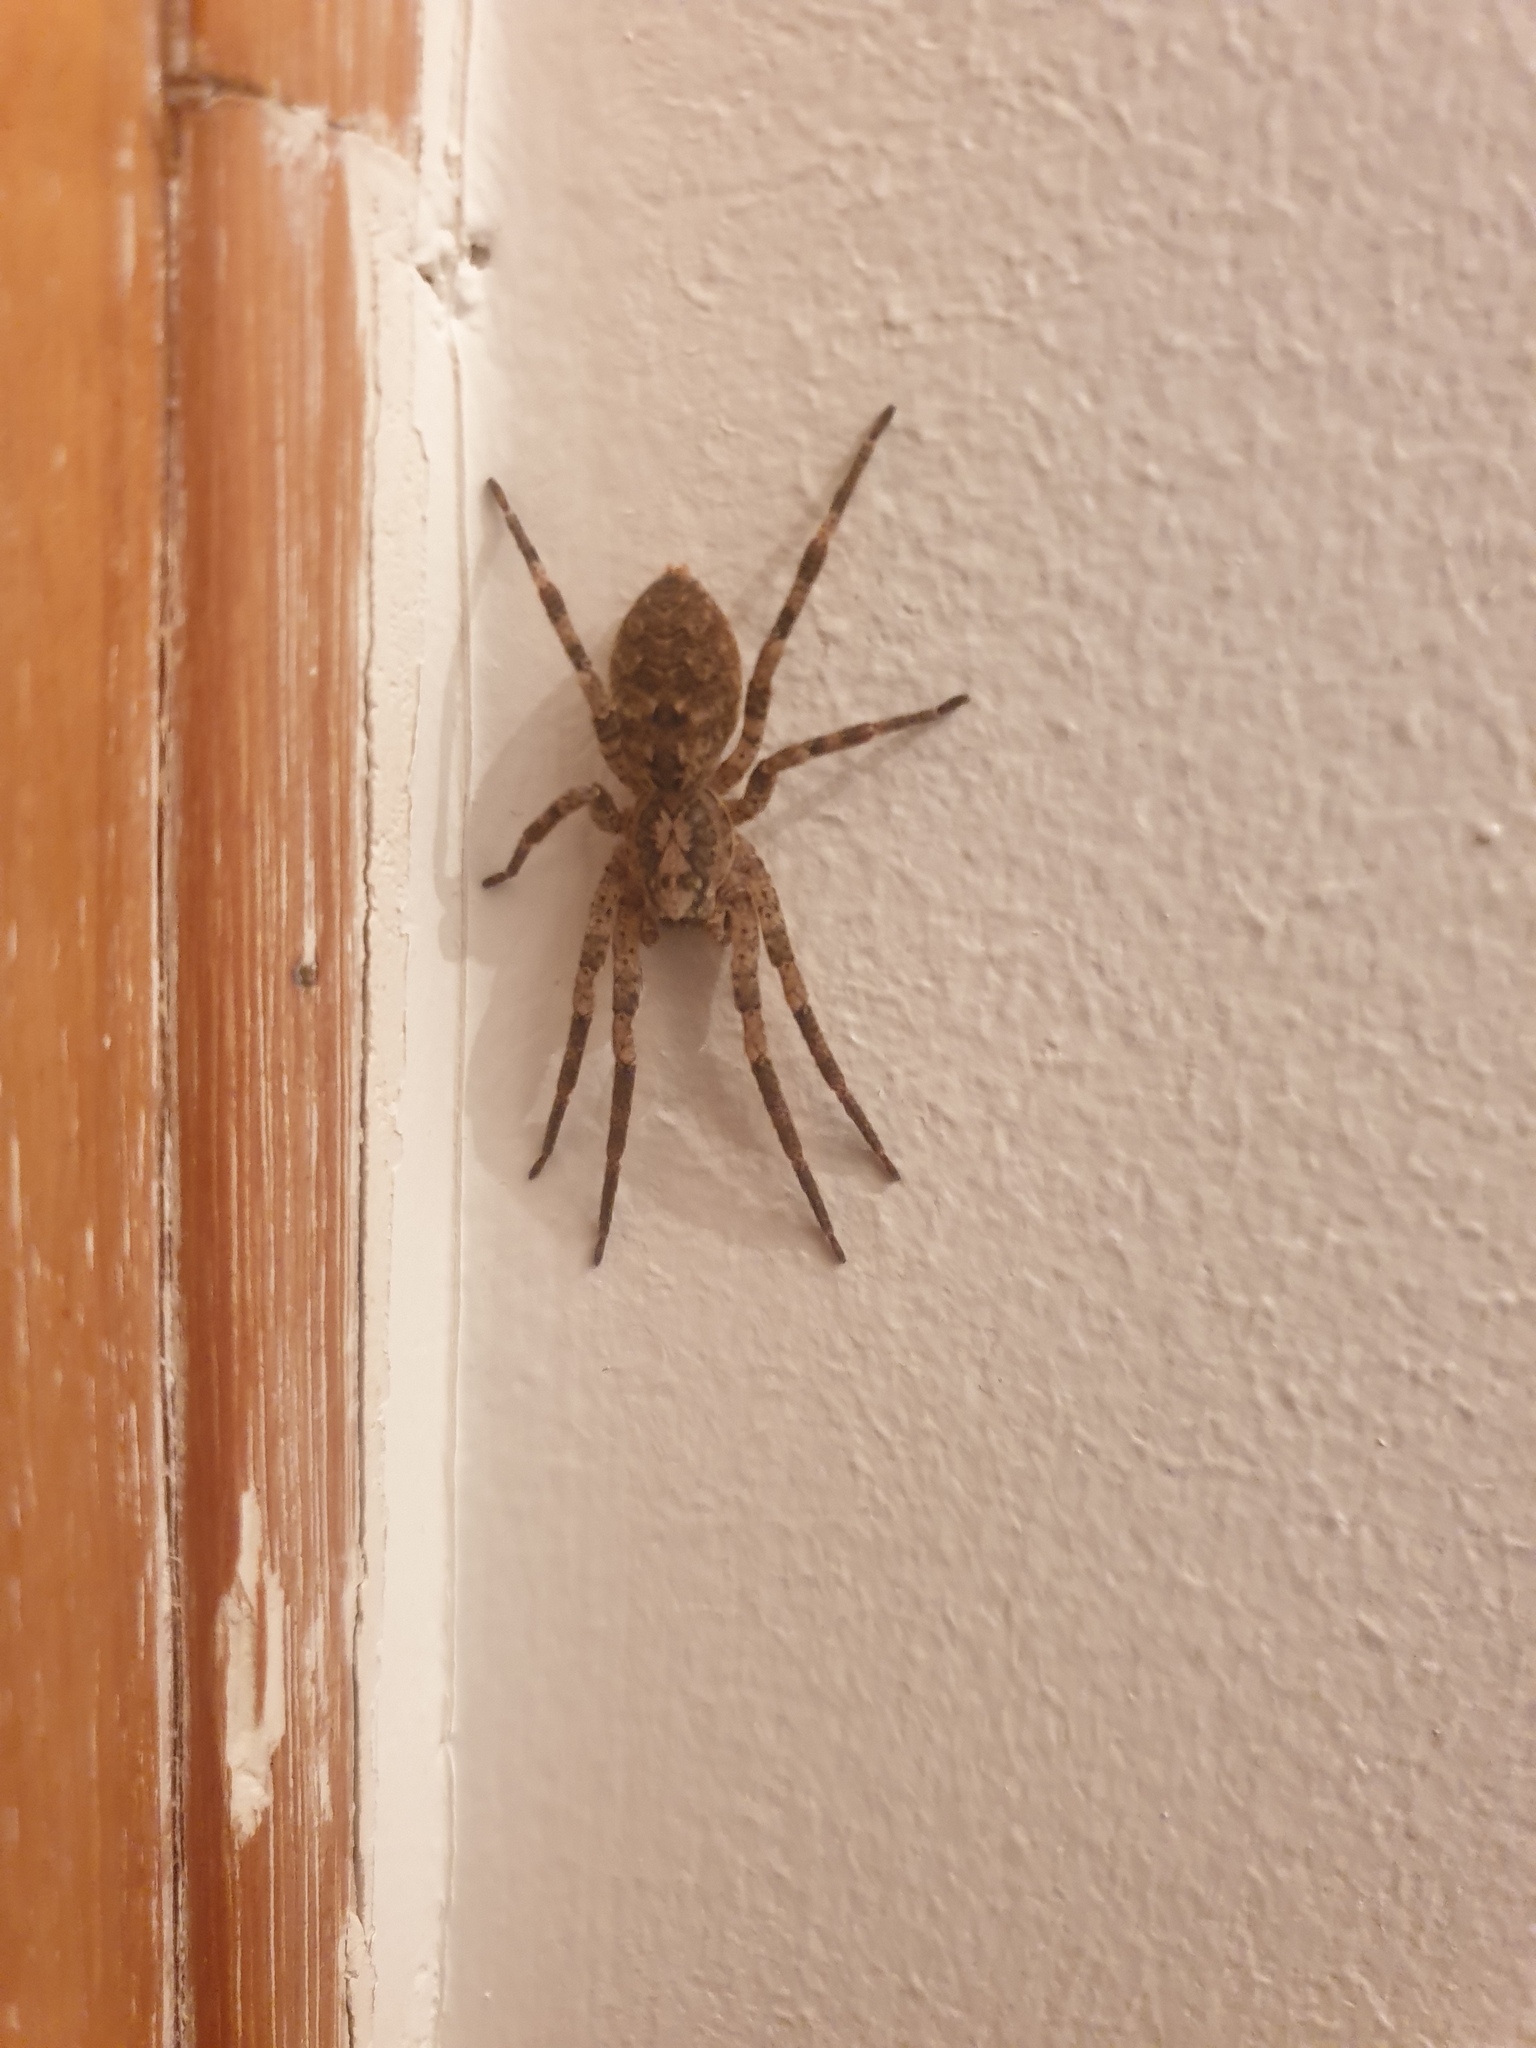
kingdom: Animalia
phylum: Arthropoda
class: Arachnida
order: Araneae
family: Zoropsidae
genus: Zoropsis
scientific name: Zoropsis spinimana
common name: Zoropsid spider
